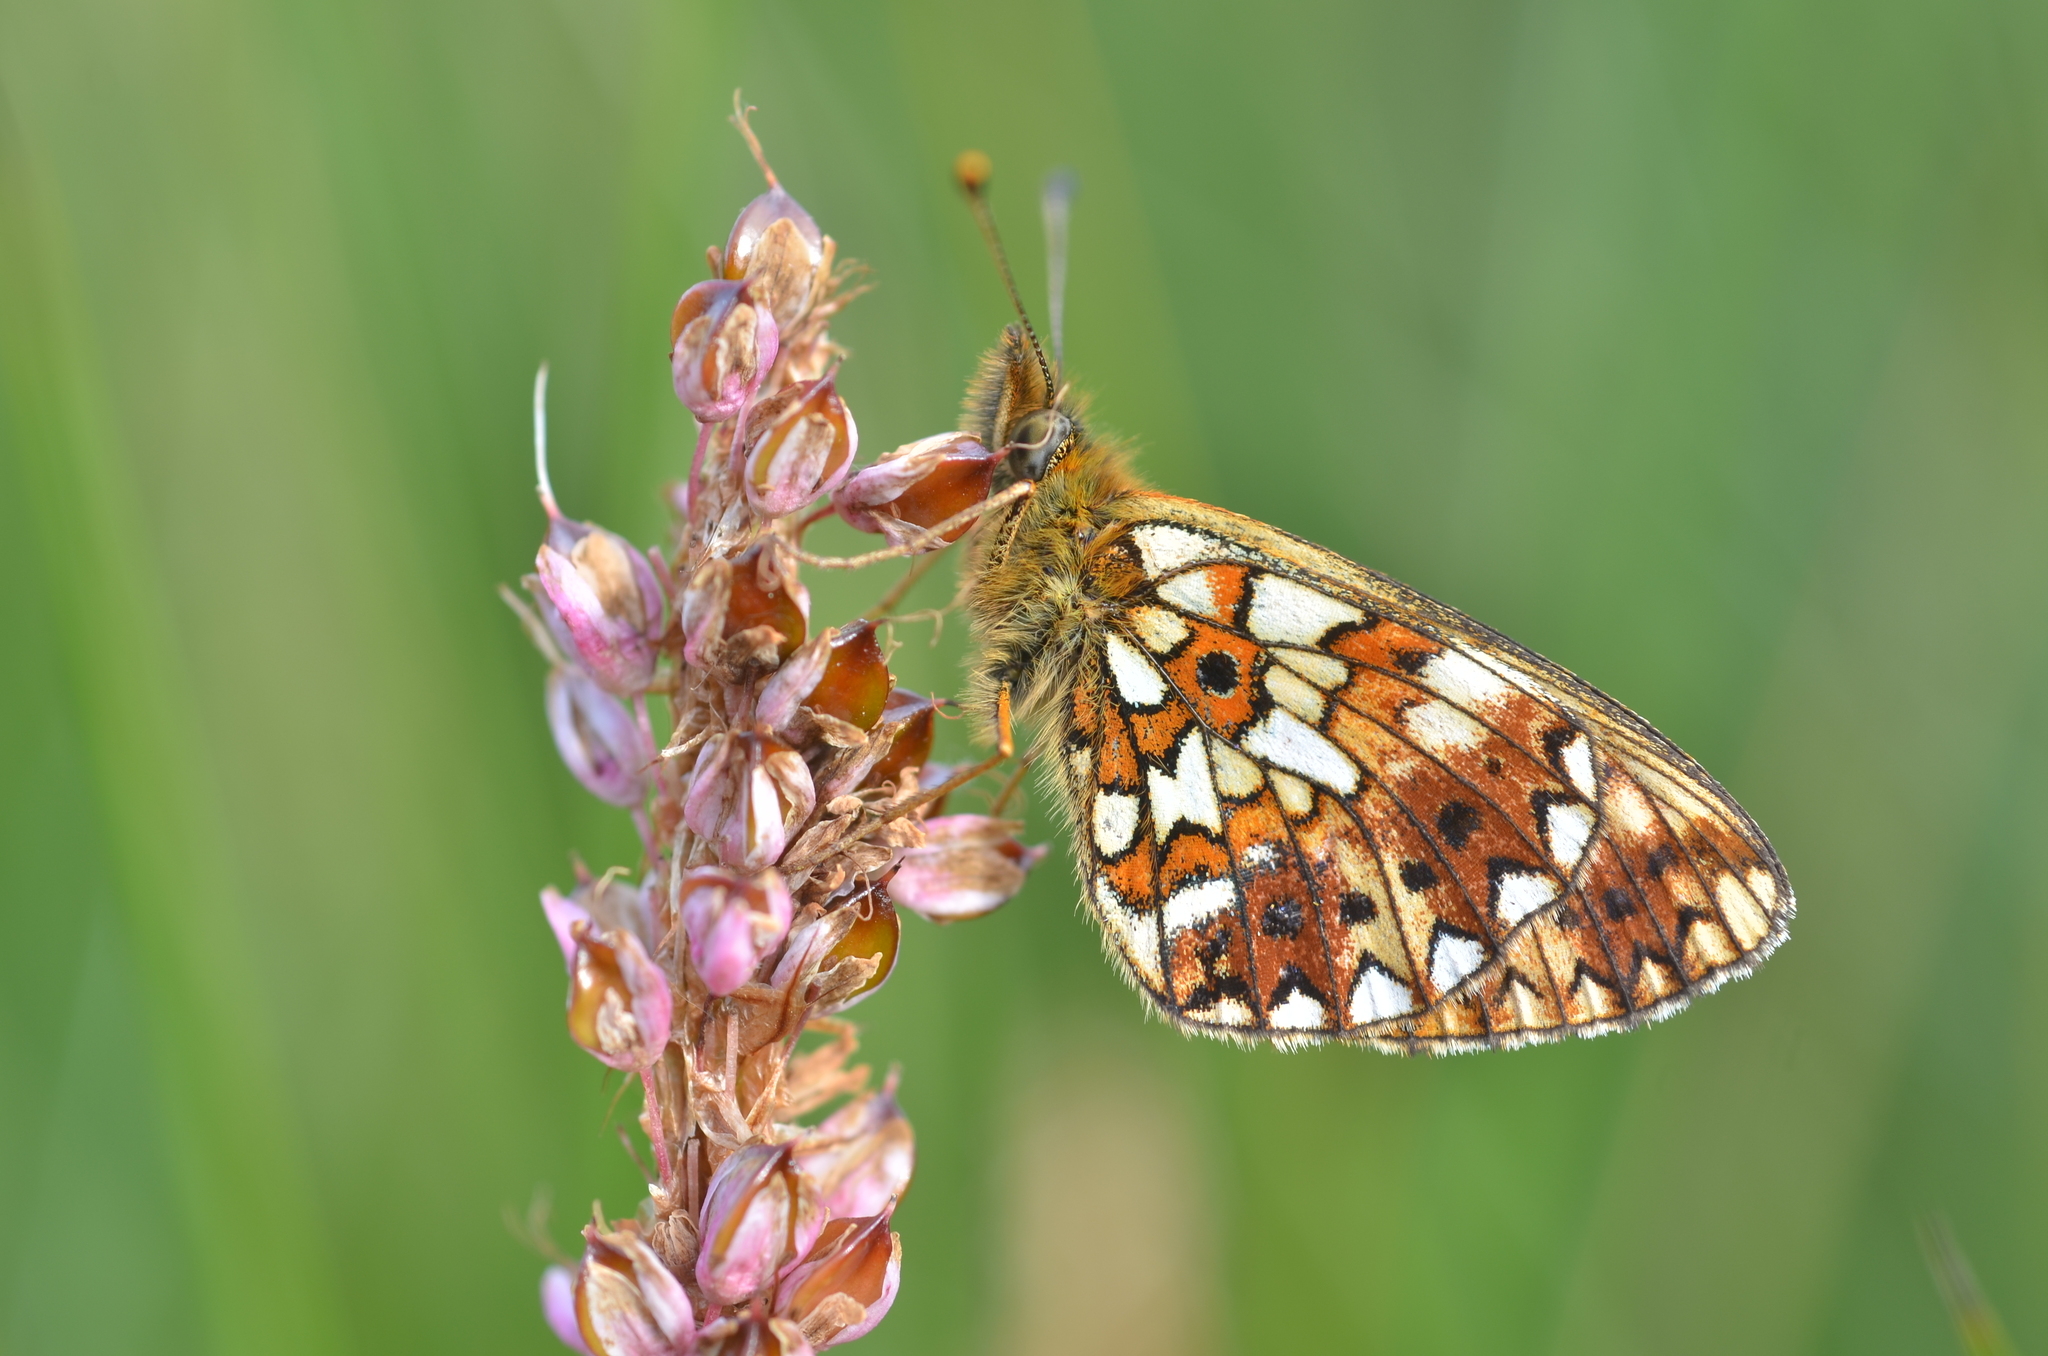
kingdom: Animalia
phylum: Arthropoda
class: Insecta
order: Lepidoptera
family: Nymphalidae
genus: Boloria
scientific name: Boloria selene
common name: Small pearl-bordered fritillary
